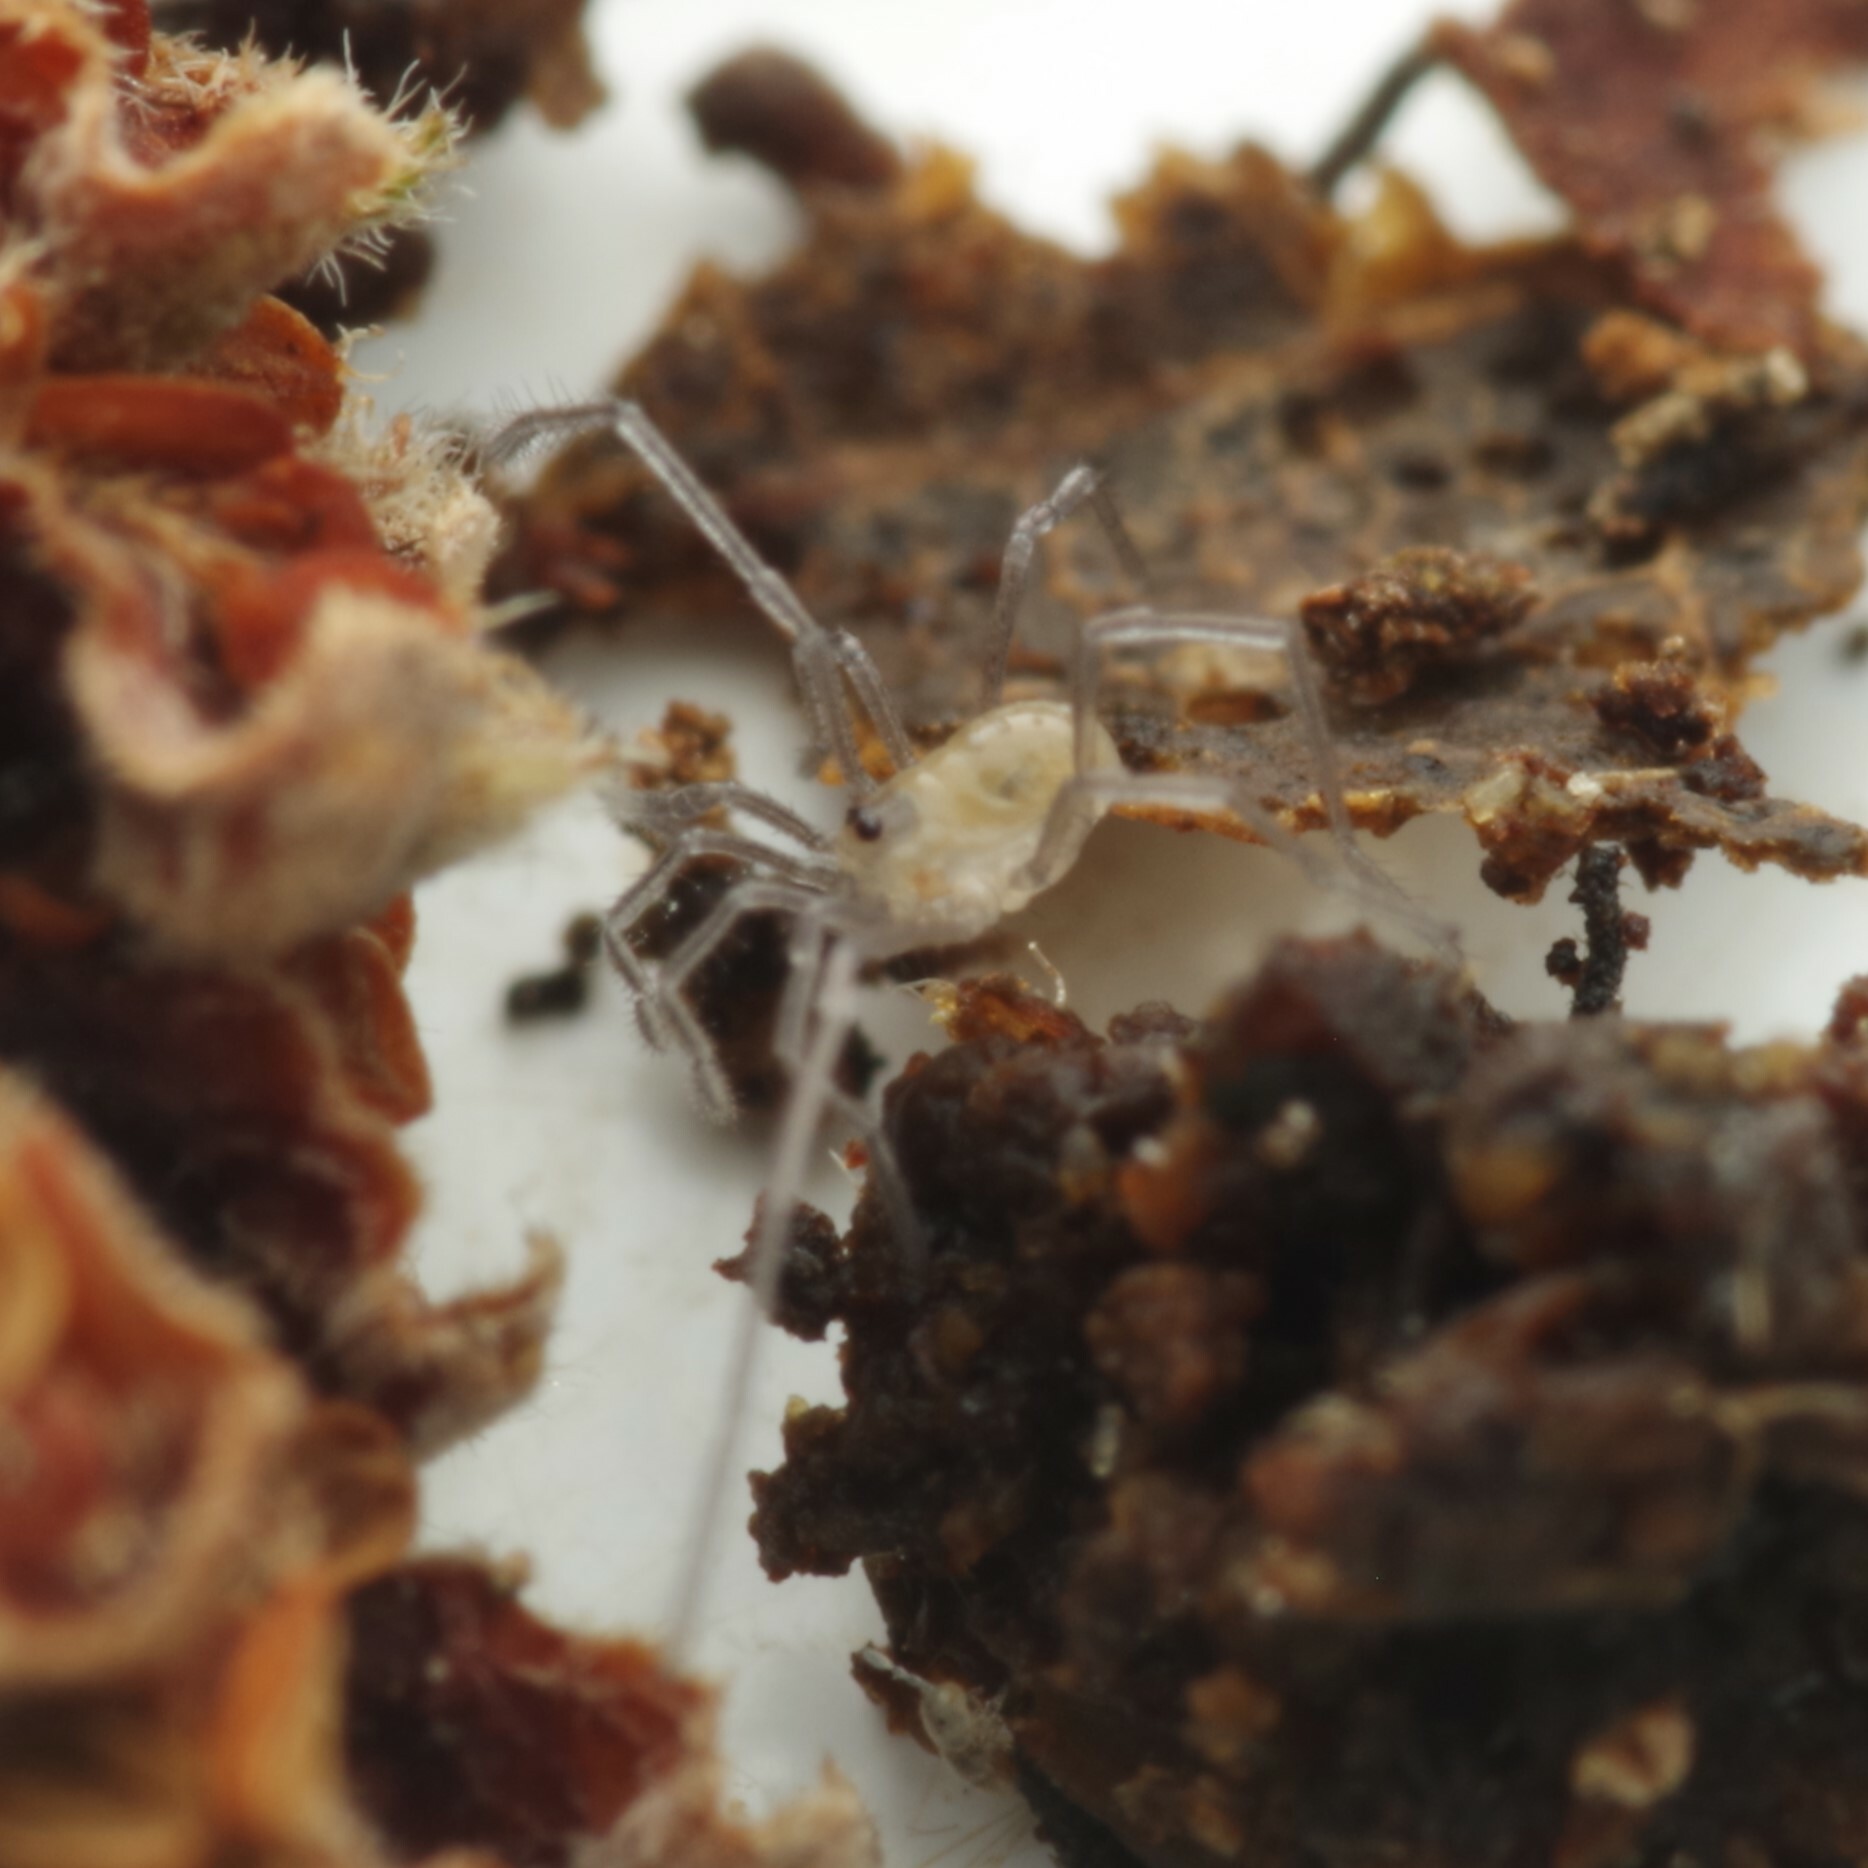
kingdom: Animalia
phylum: Arthropoda
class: Arachnida
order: Opiliones
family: Nemastomatidae
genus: Mitostoma
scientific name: Mitostoma chrysomelas
